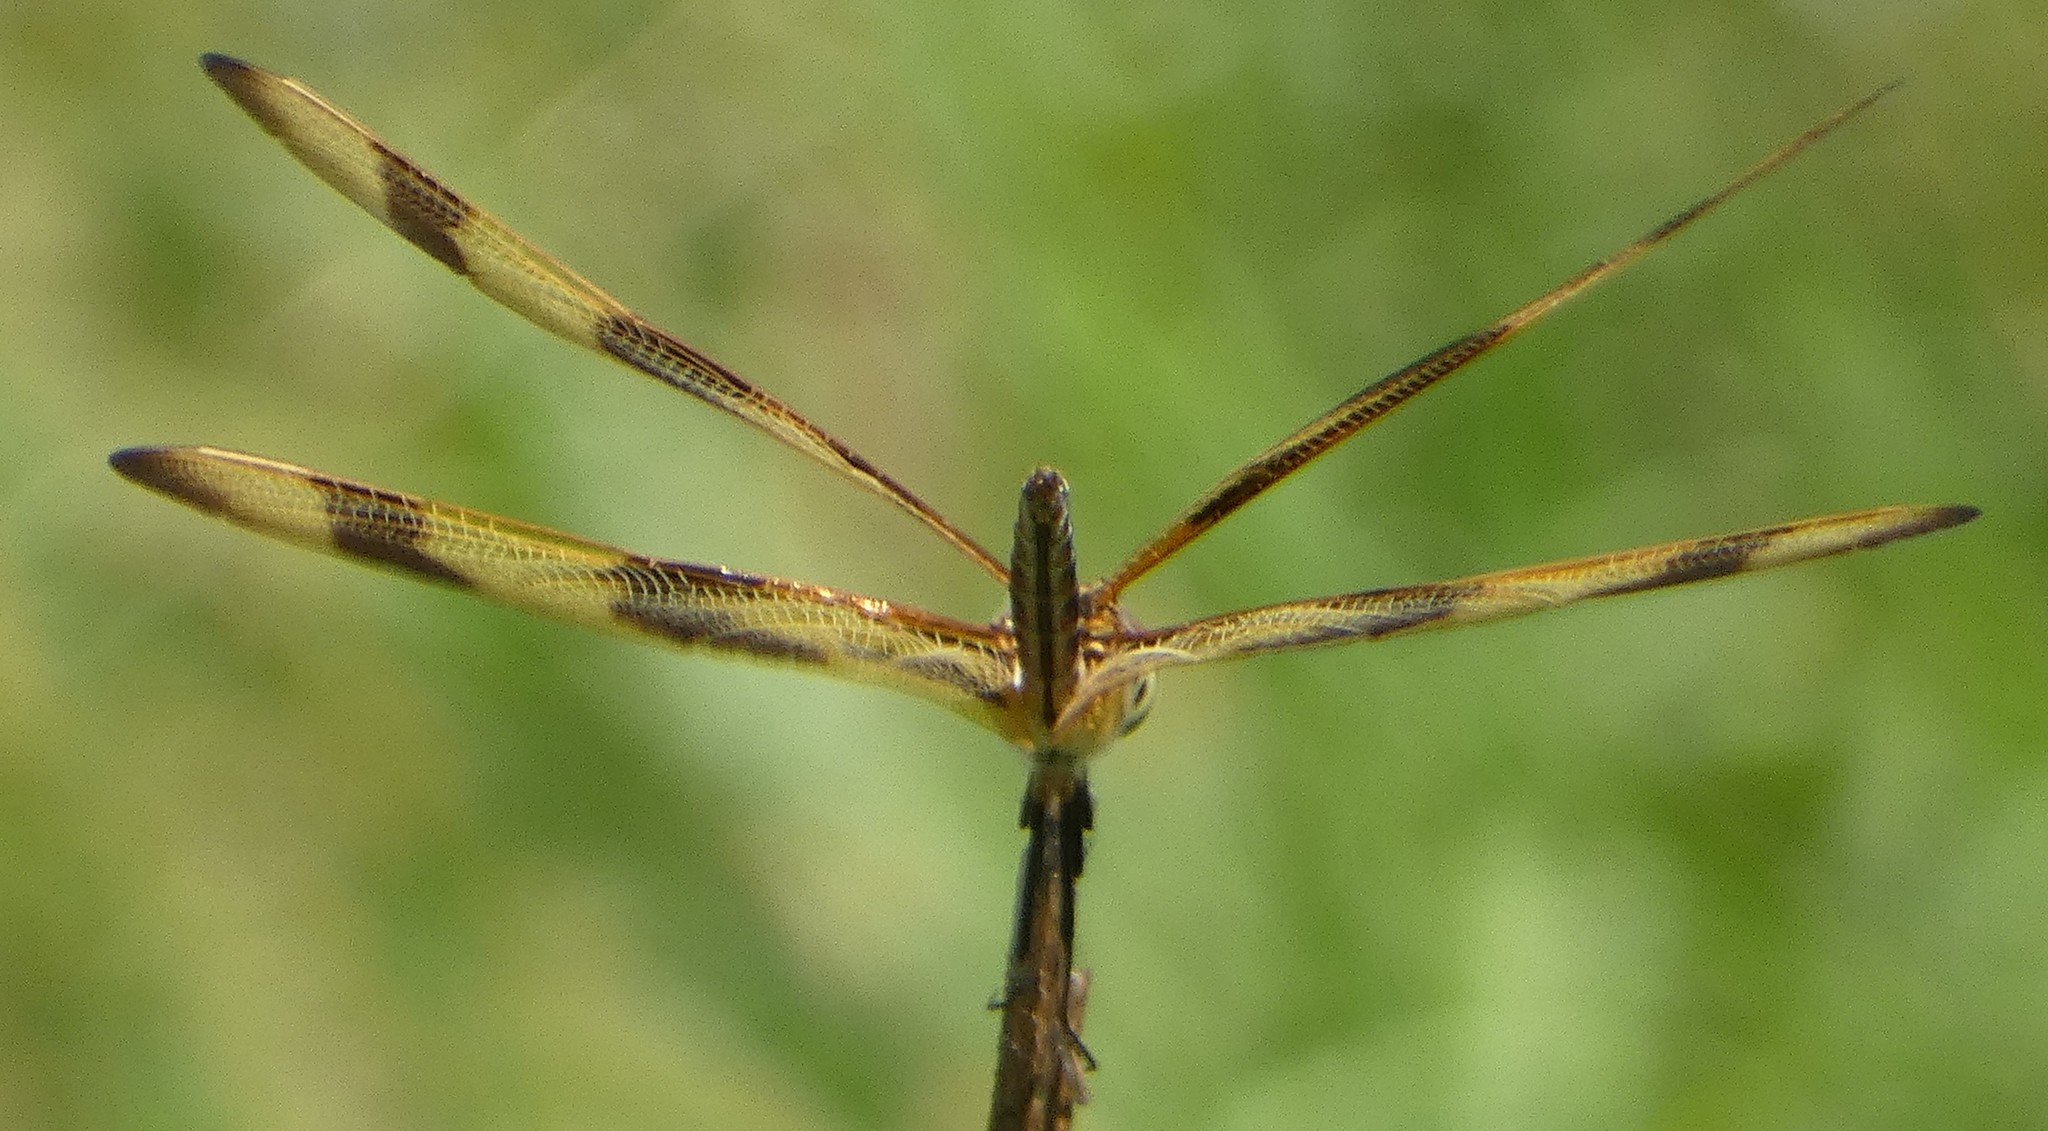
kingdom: Animalia
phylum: Arthropoda
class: Insecta
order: Odonata
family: Libellulidae
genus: Celithemis
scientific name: Celithemis eponina
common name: Halloween pennant
